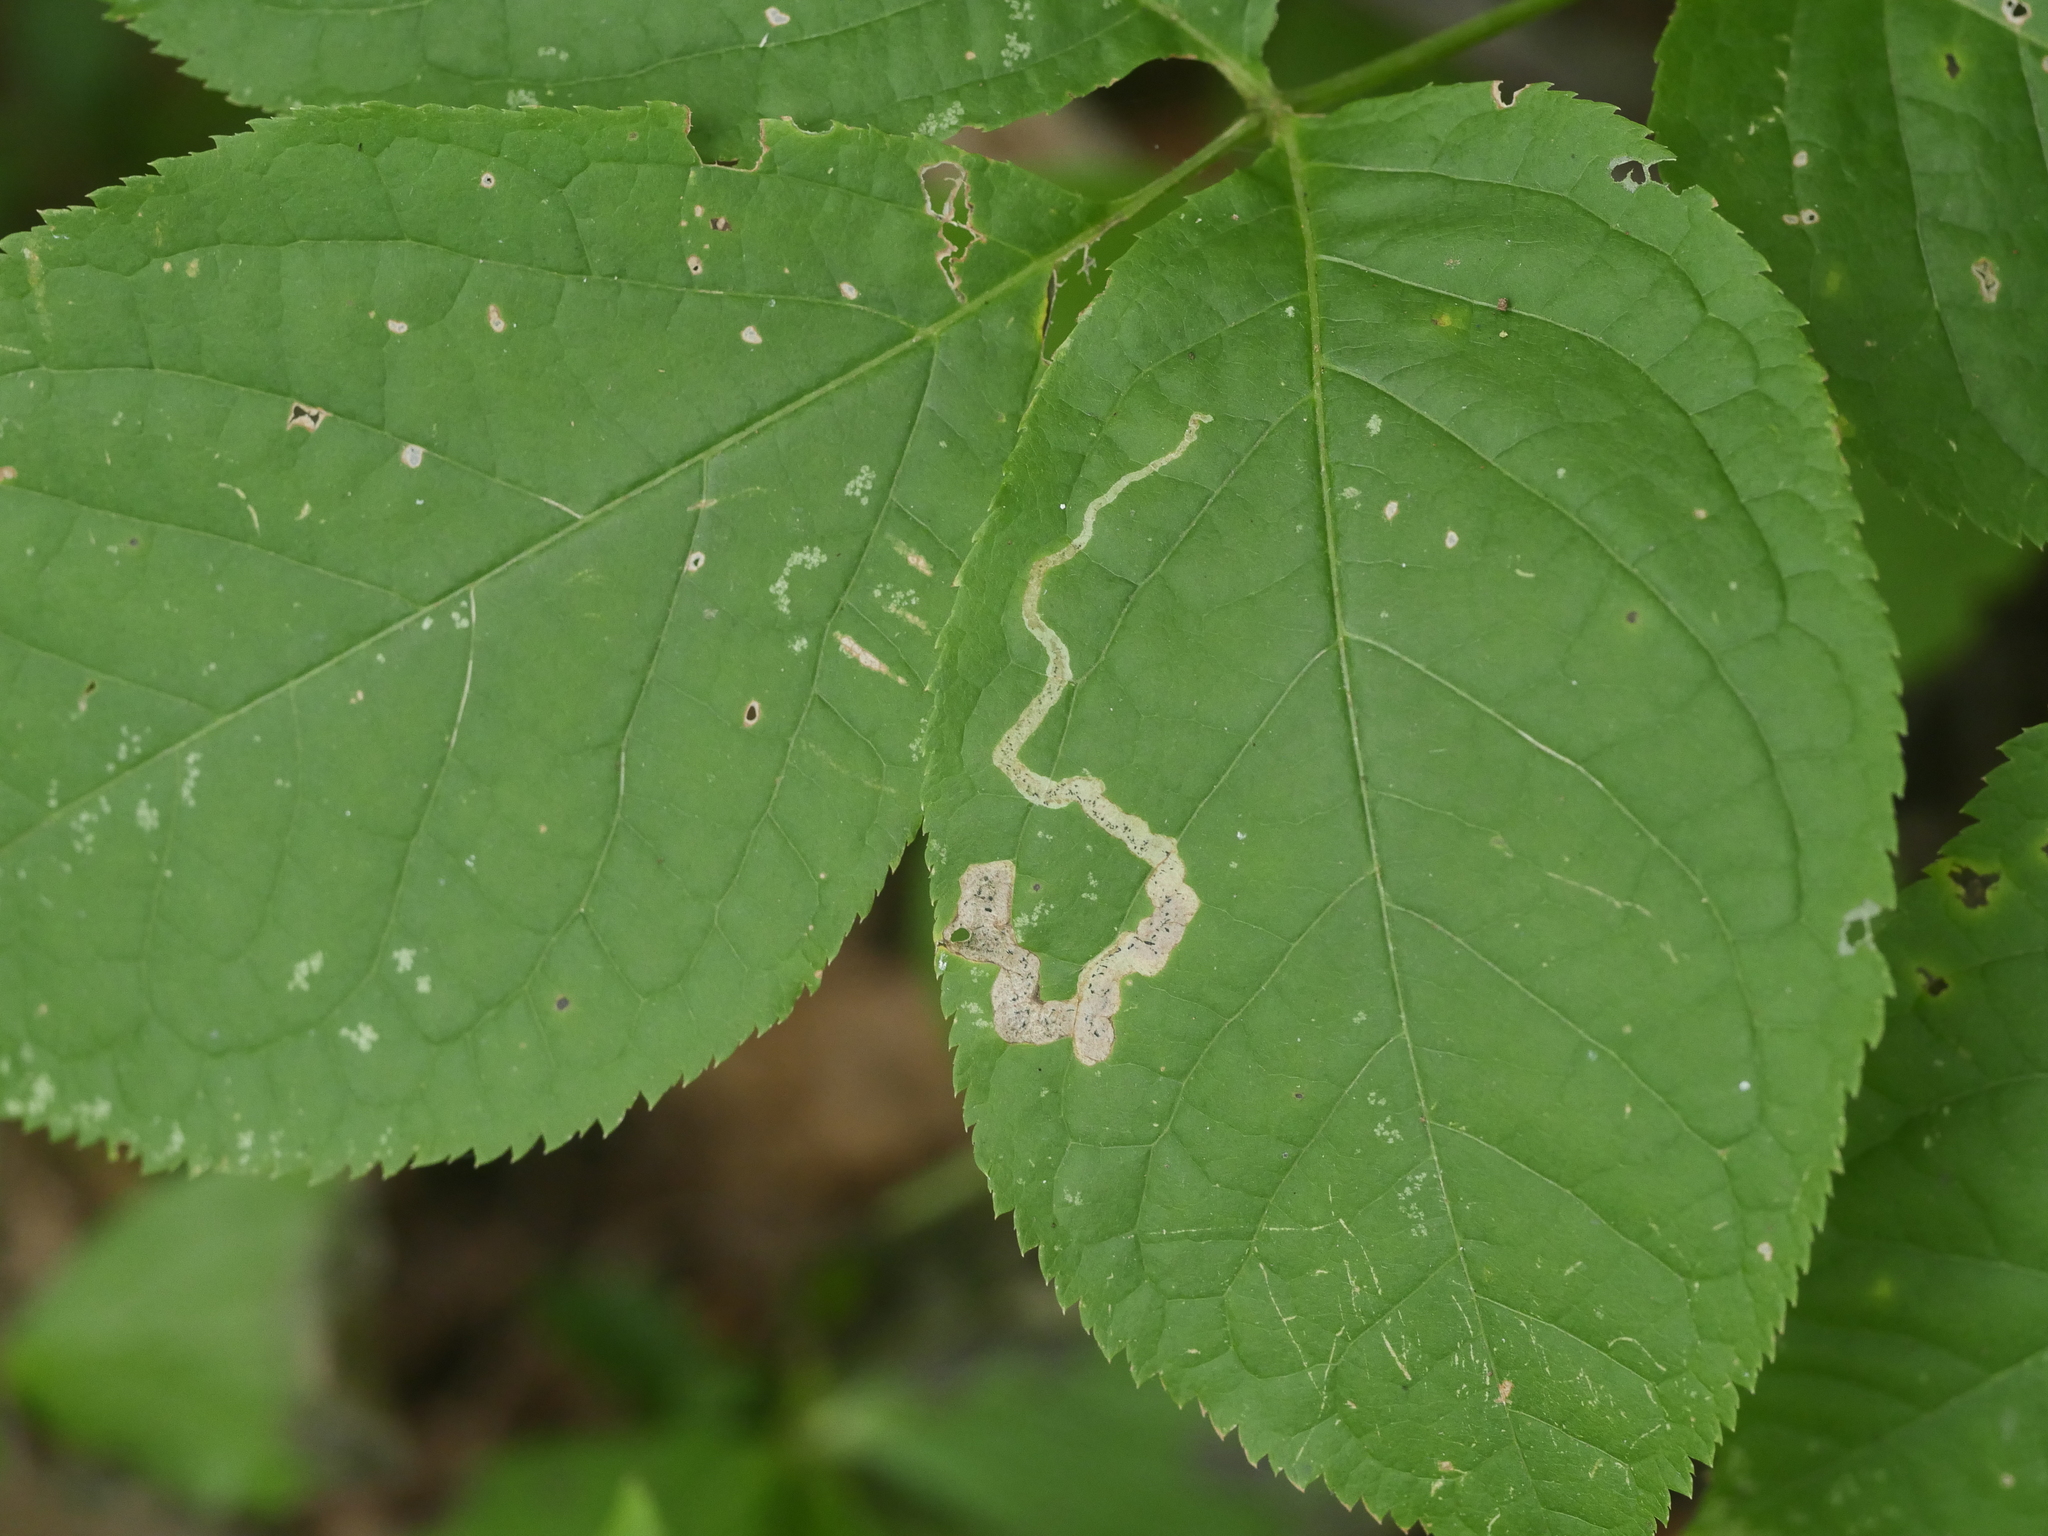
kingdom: Animalia
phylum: Arthropoda
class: Insecta
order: Diptera
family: Agromyzidae
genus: Phytomyza
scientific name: Phytomyza aralivora
